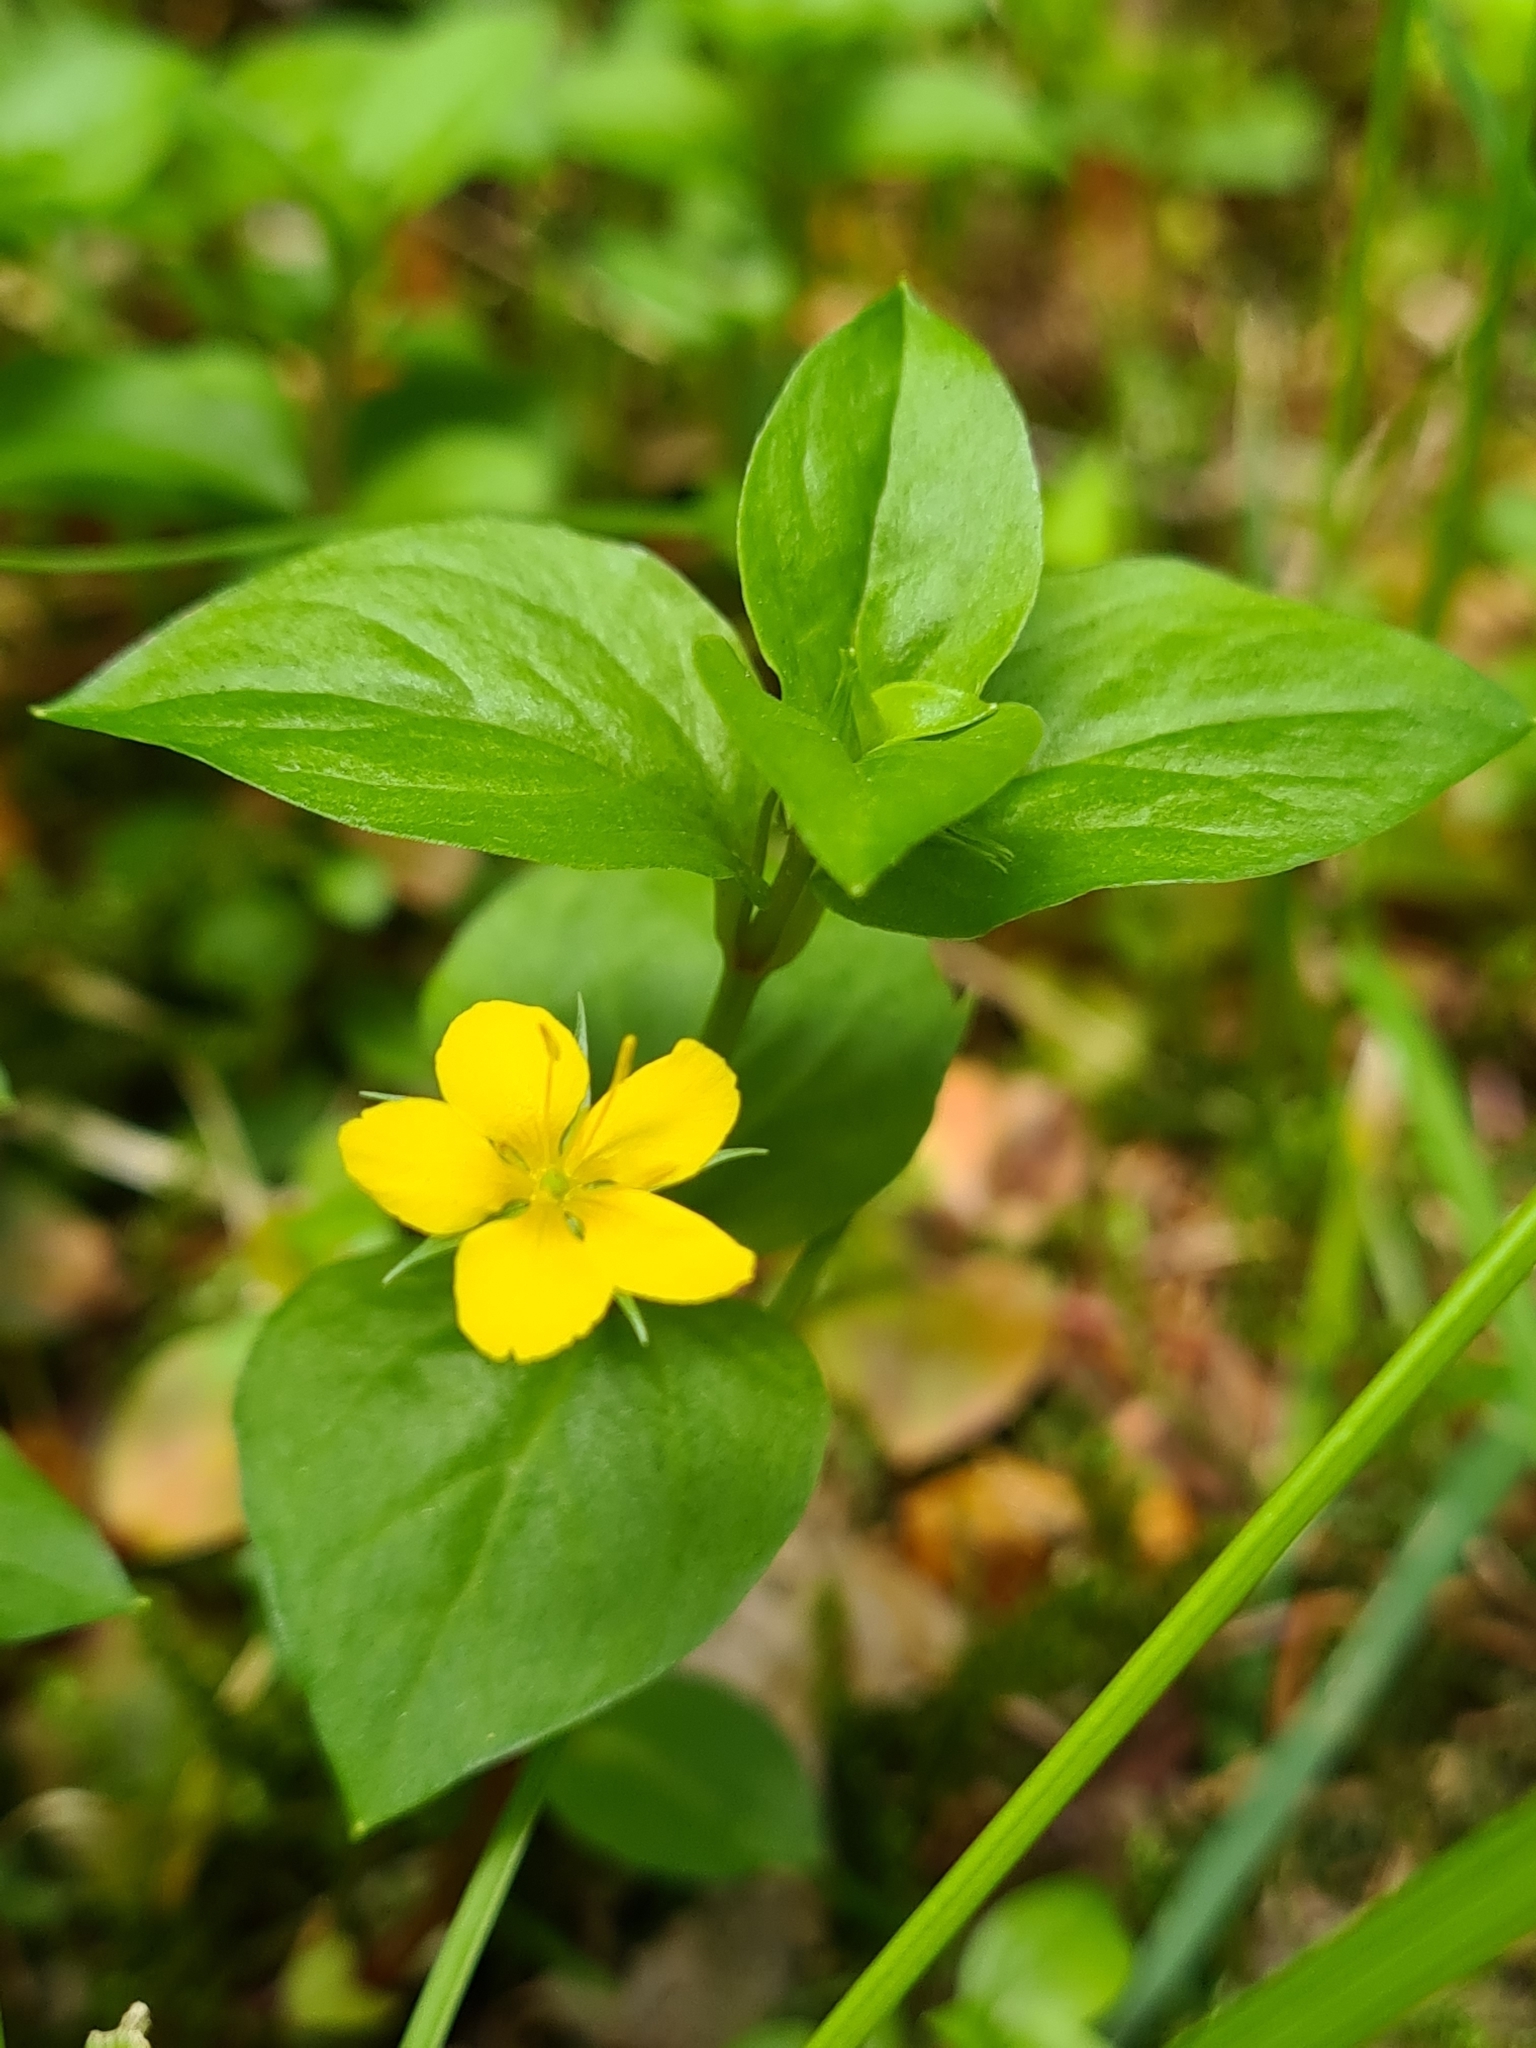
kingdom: Plantae
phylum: Tracheophyta
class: Magnoliopsida
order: Ericales
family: Primulaceae
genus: Lysimachia
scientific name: Lysimachia nemorum
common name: Yellow pimpernel
